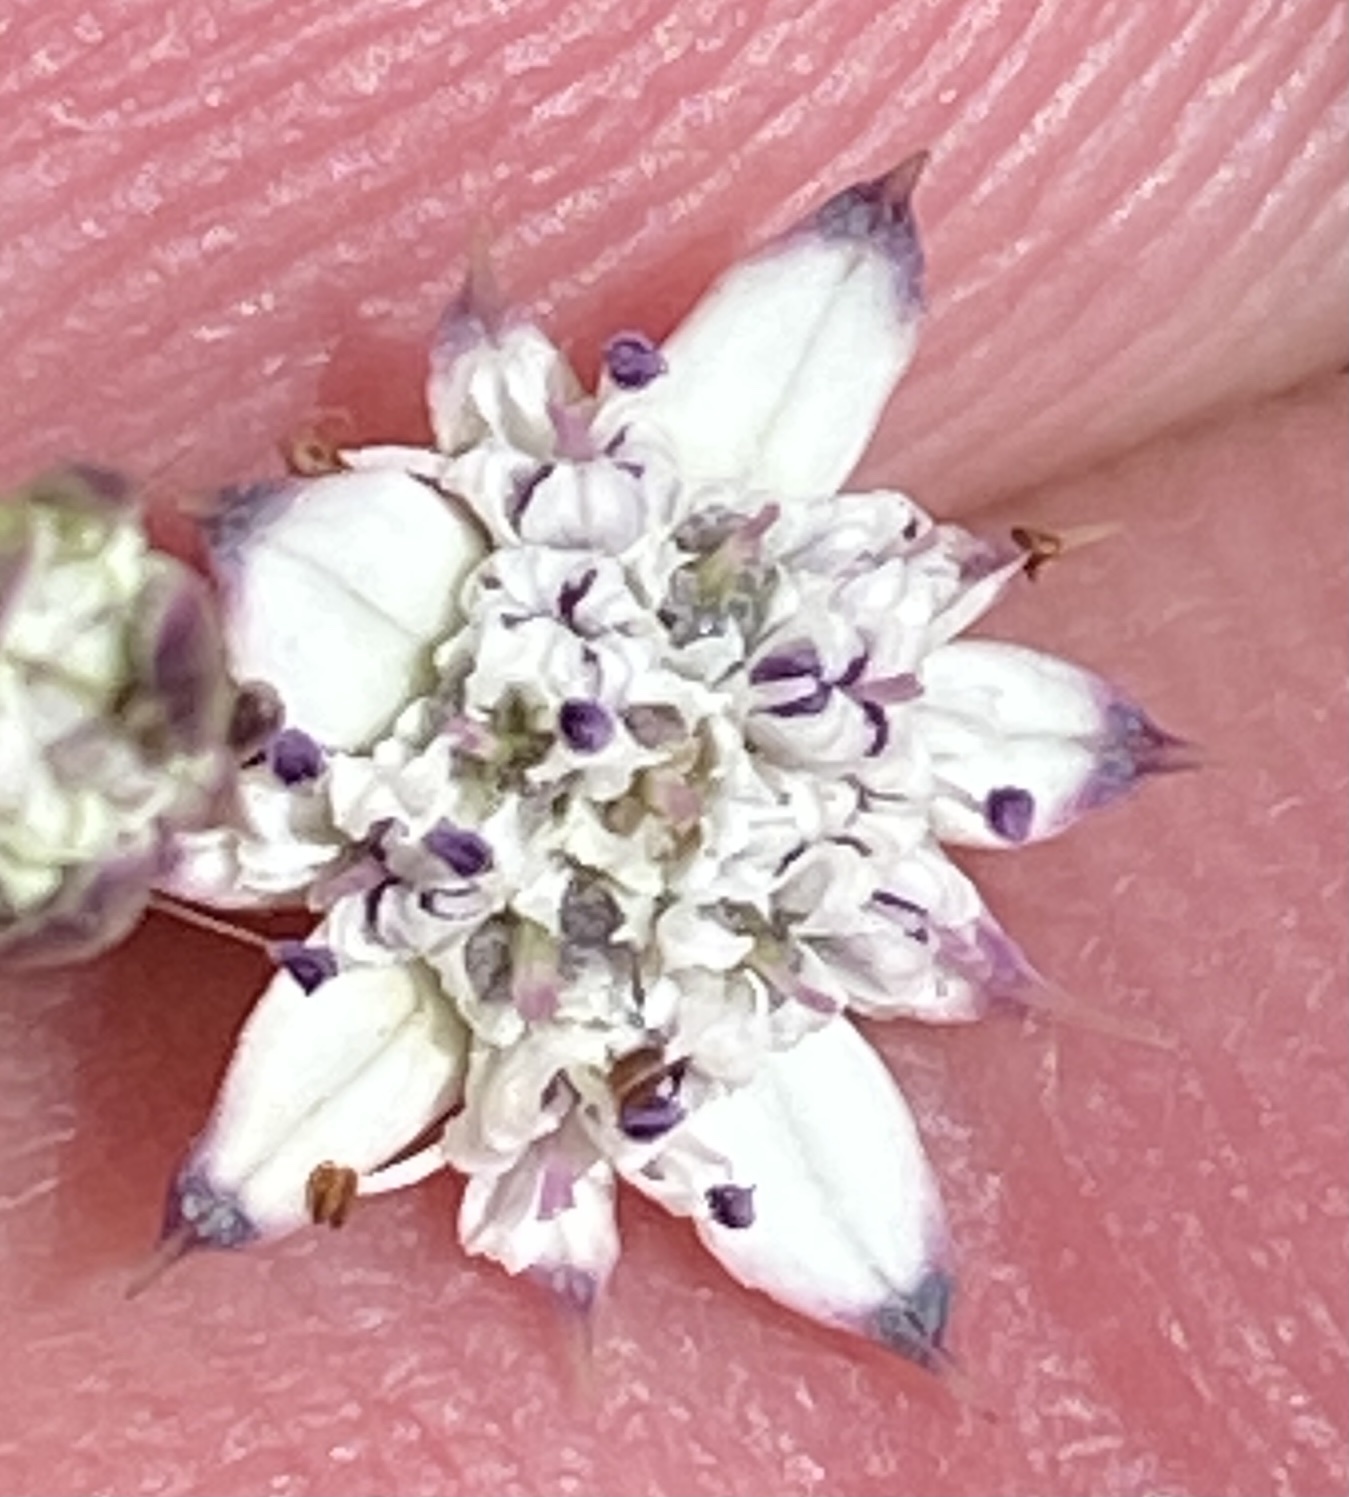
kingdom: Plantae
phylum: Tracheophyta
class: Magnoliopsida
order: Apiales
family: Apiaceae
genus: Alepidea
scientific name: Alepidea capensis
